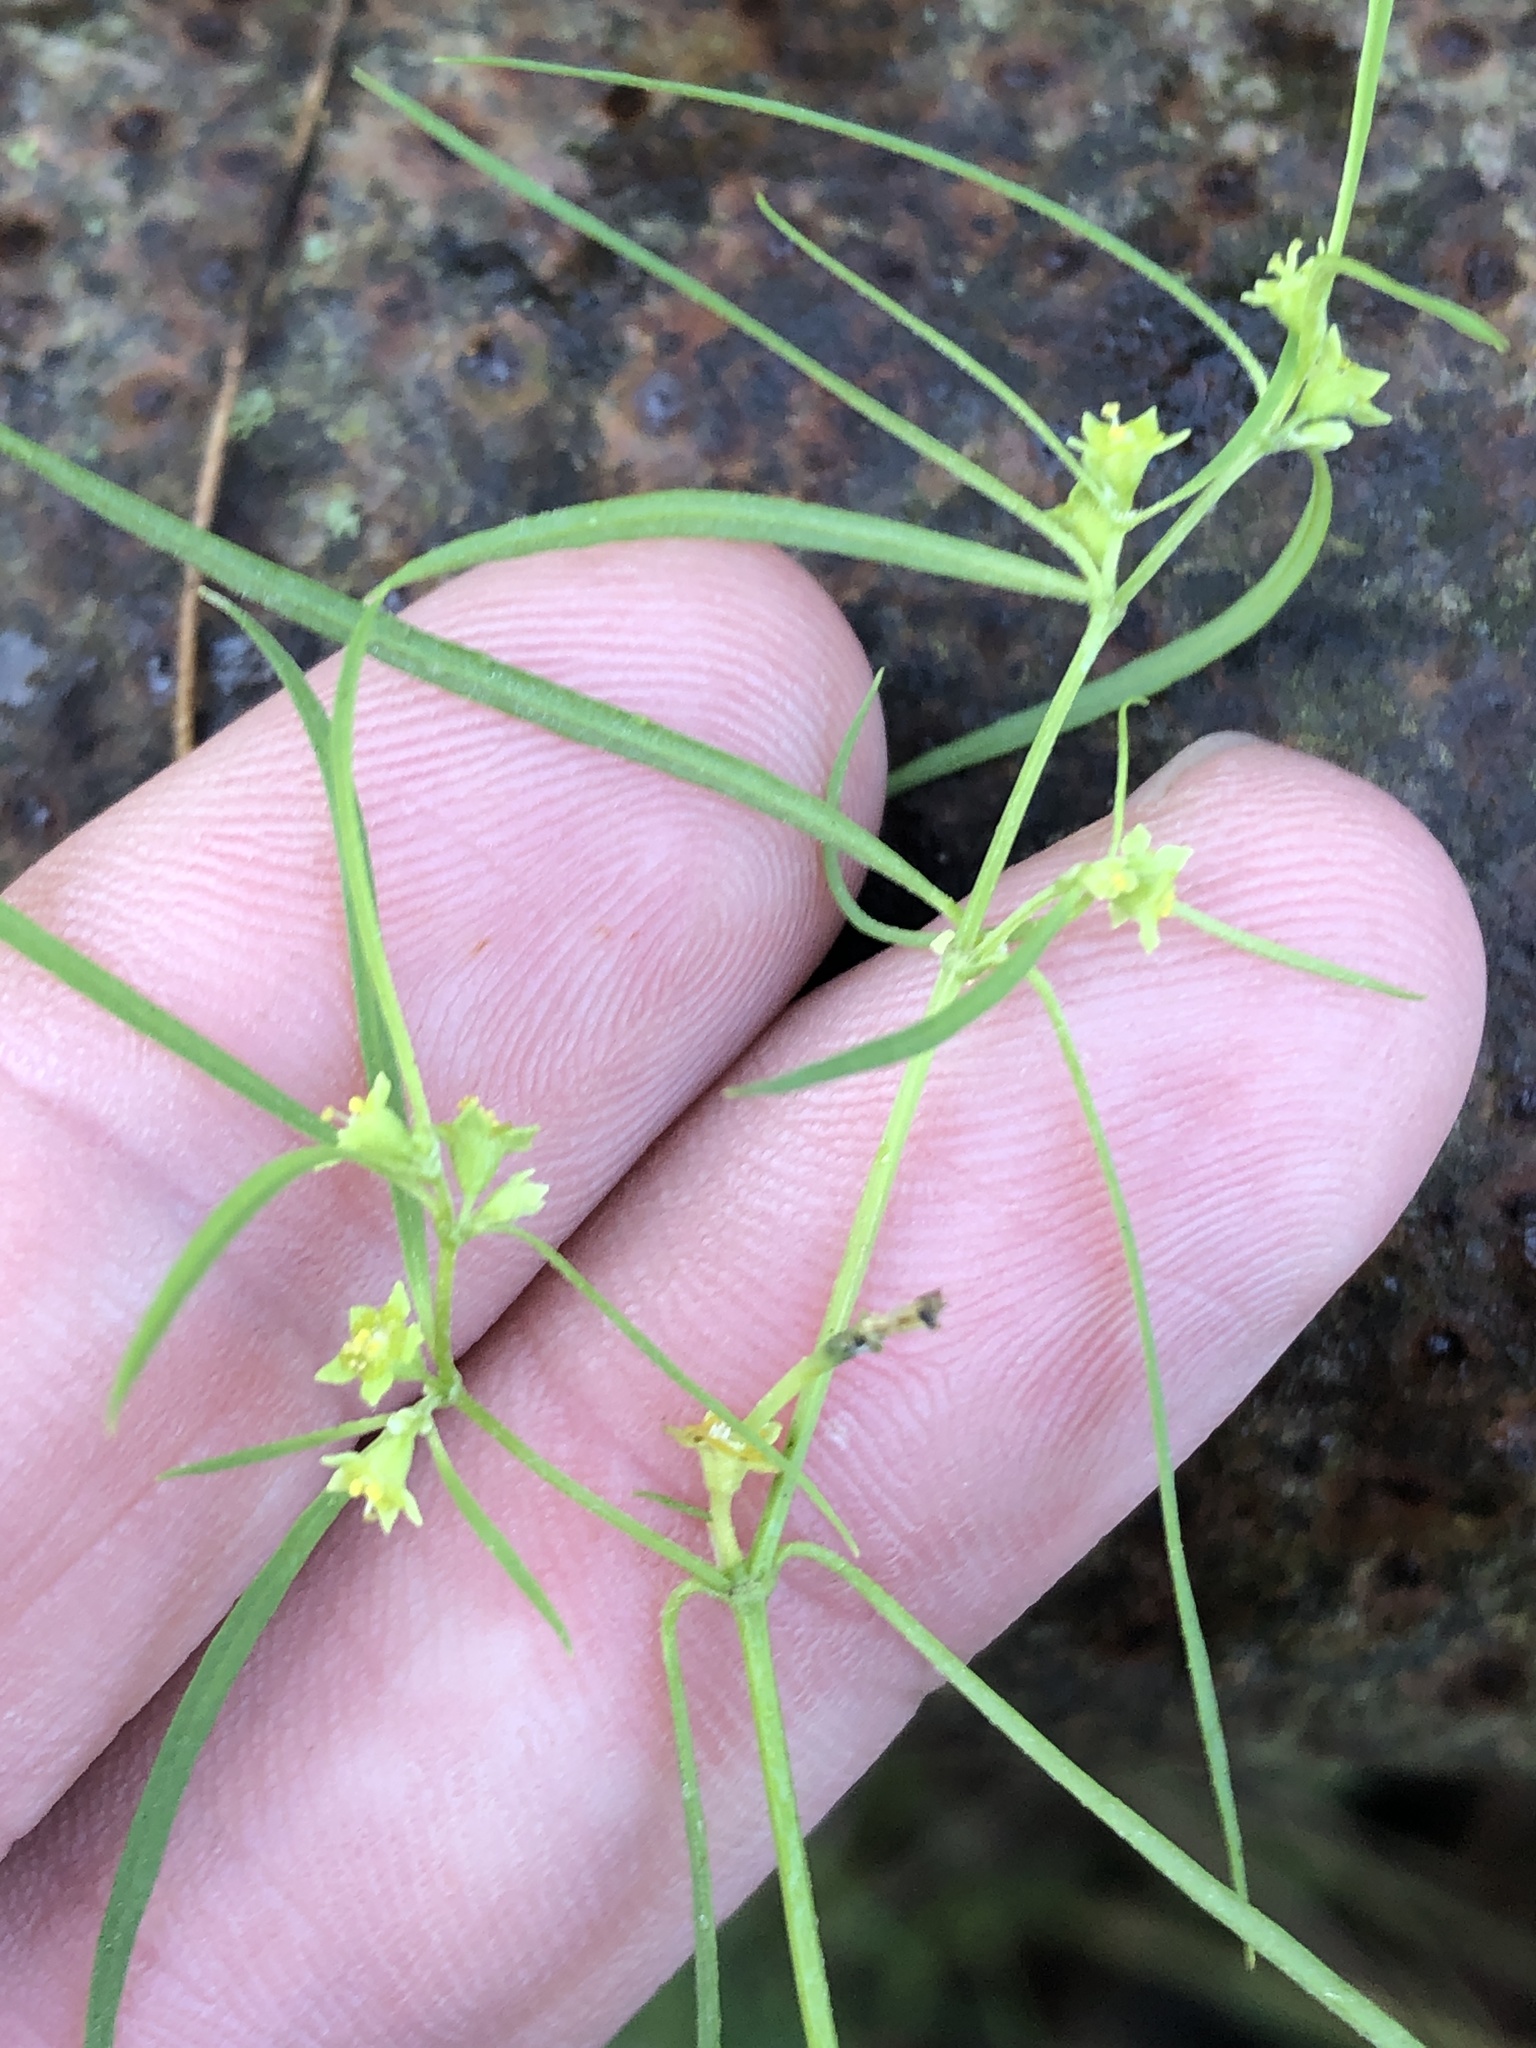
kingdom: Plantae
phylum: Tracheophyta
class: Magnoliopsida
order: Malpighiales
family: Euphorbiaceae
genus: Euphorbia
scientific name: Euphorbia hexagona
